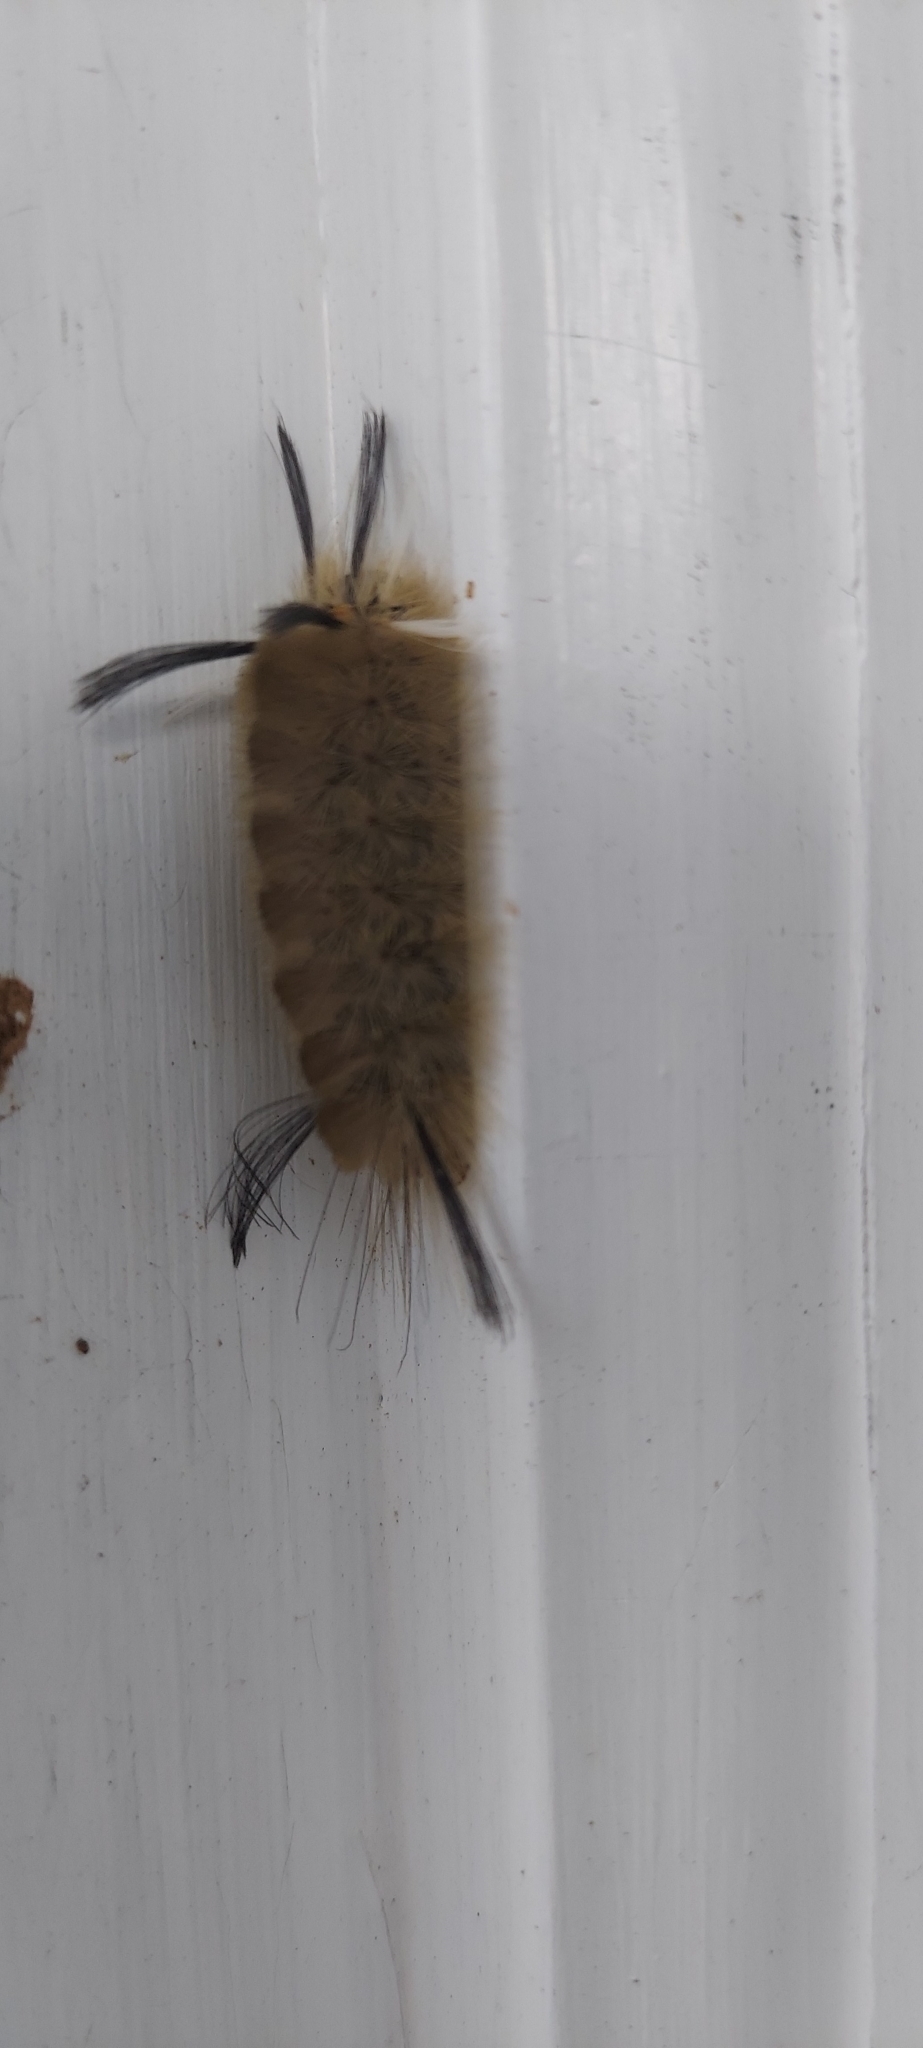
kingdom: Animalia
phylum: Arthropoda
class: Insecta
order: Lepidoptera
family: Erebidae
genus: Halysidota
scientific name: Halysidota tessellaris
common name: Banded tussock moth
